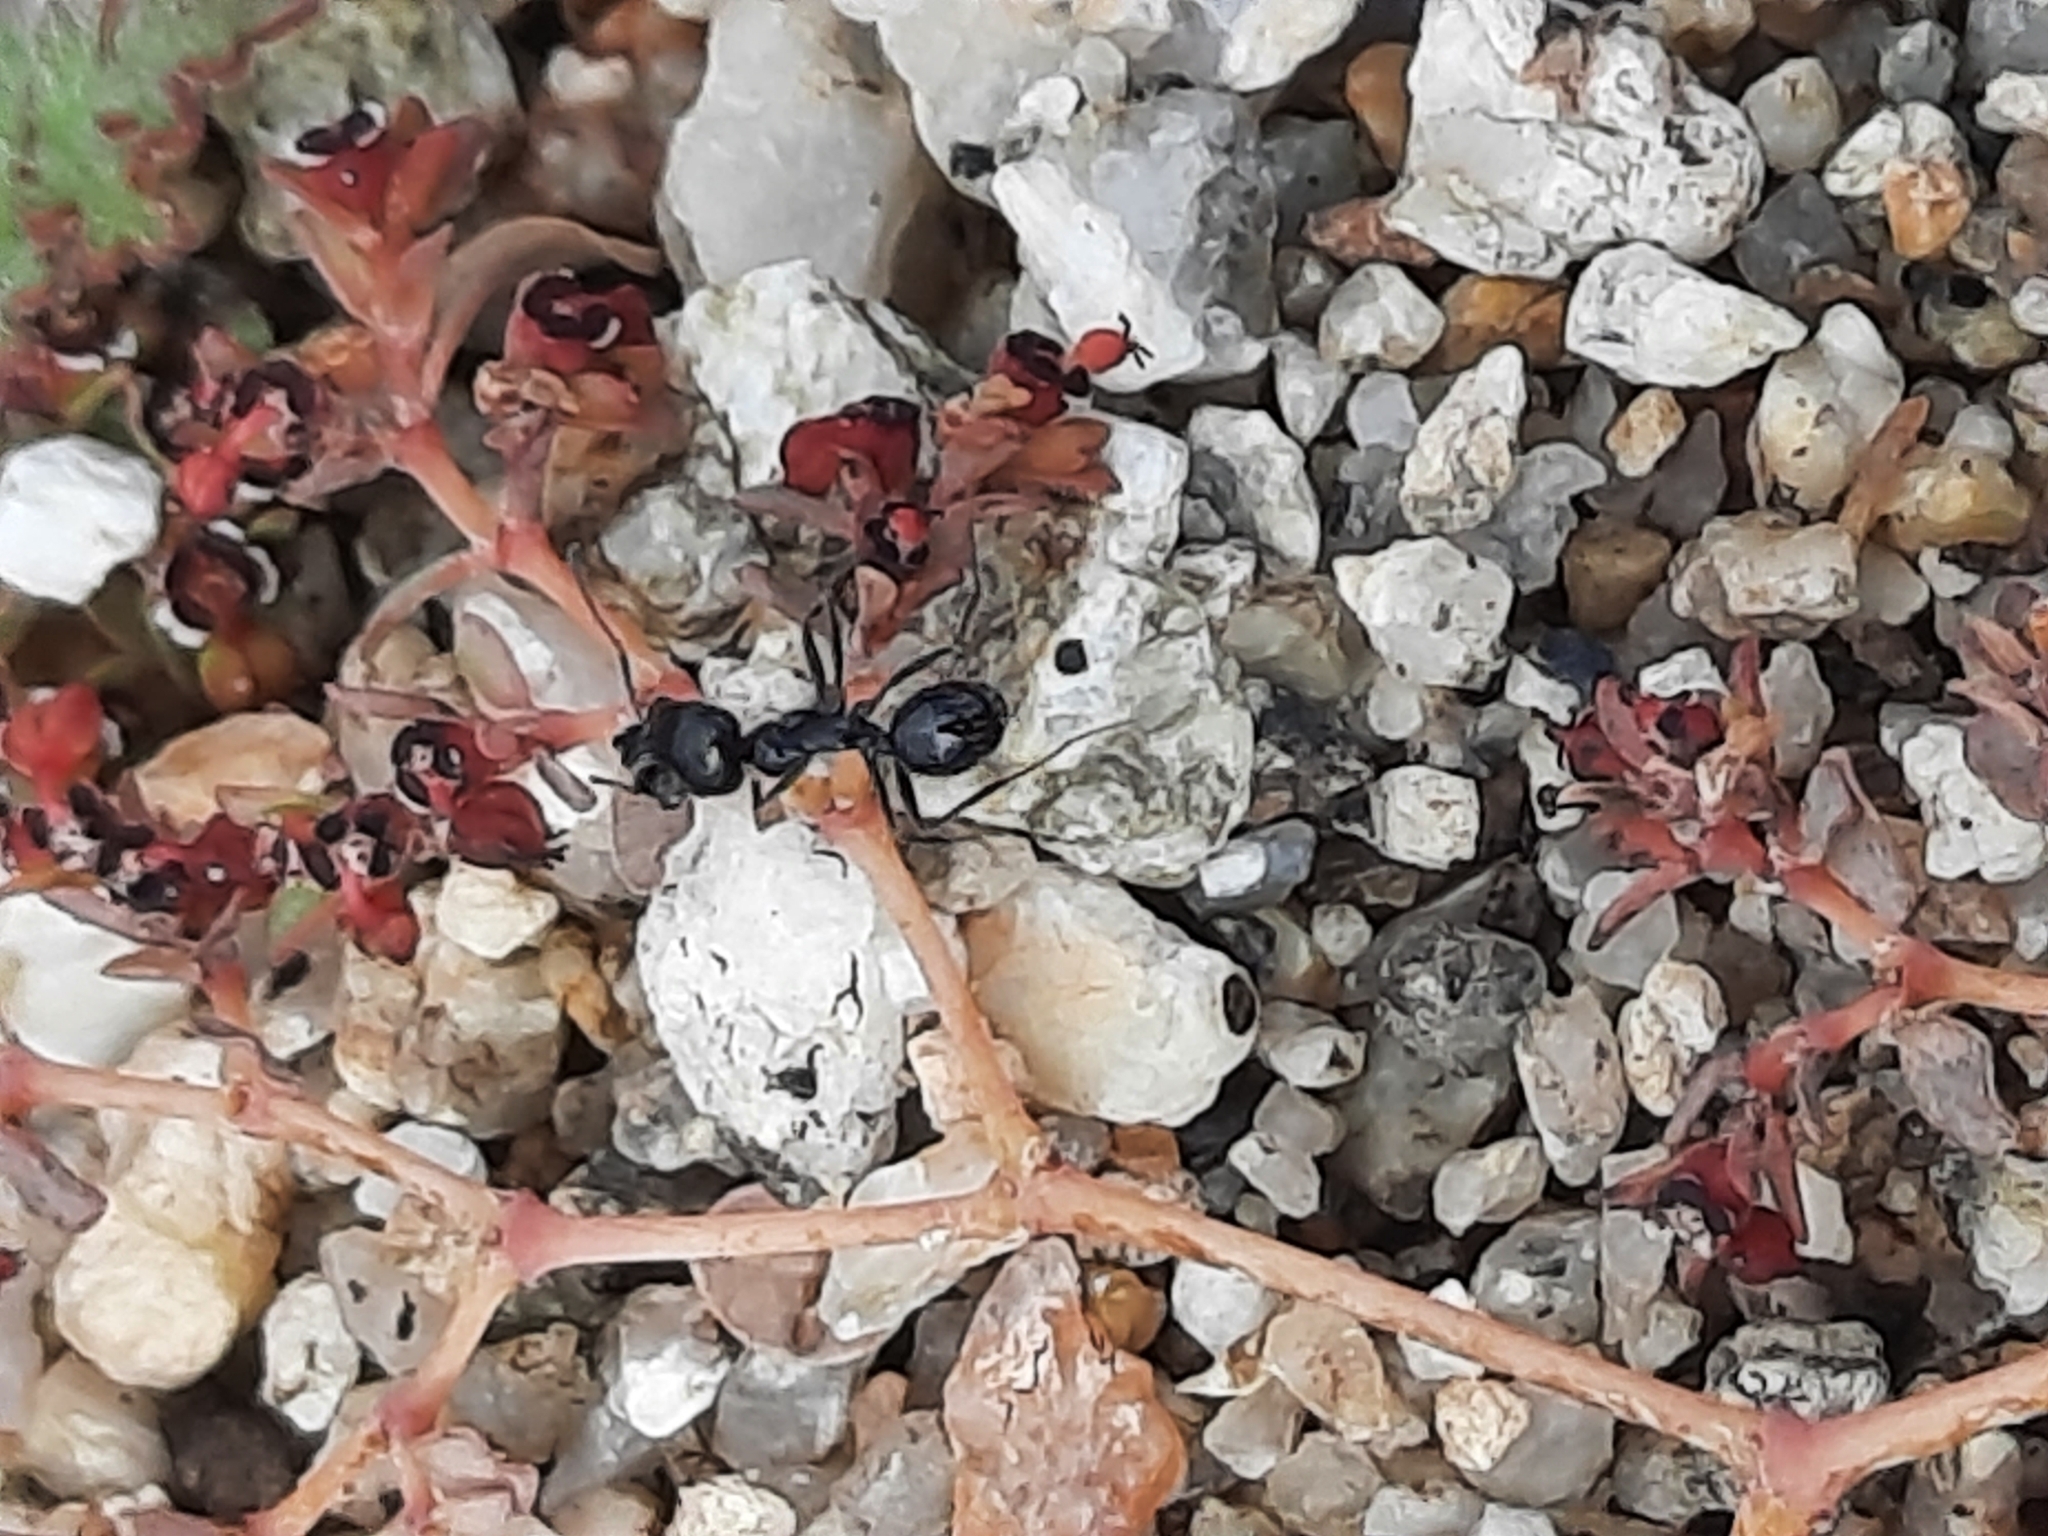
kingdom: Animalia
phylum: Arthropoda
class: Insecta
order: Hymenoptera
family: Formicidae
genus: Messor
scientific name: Messor pergandei
